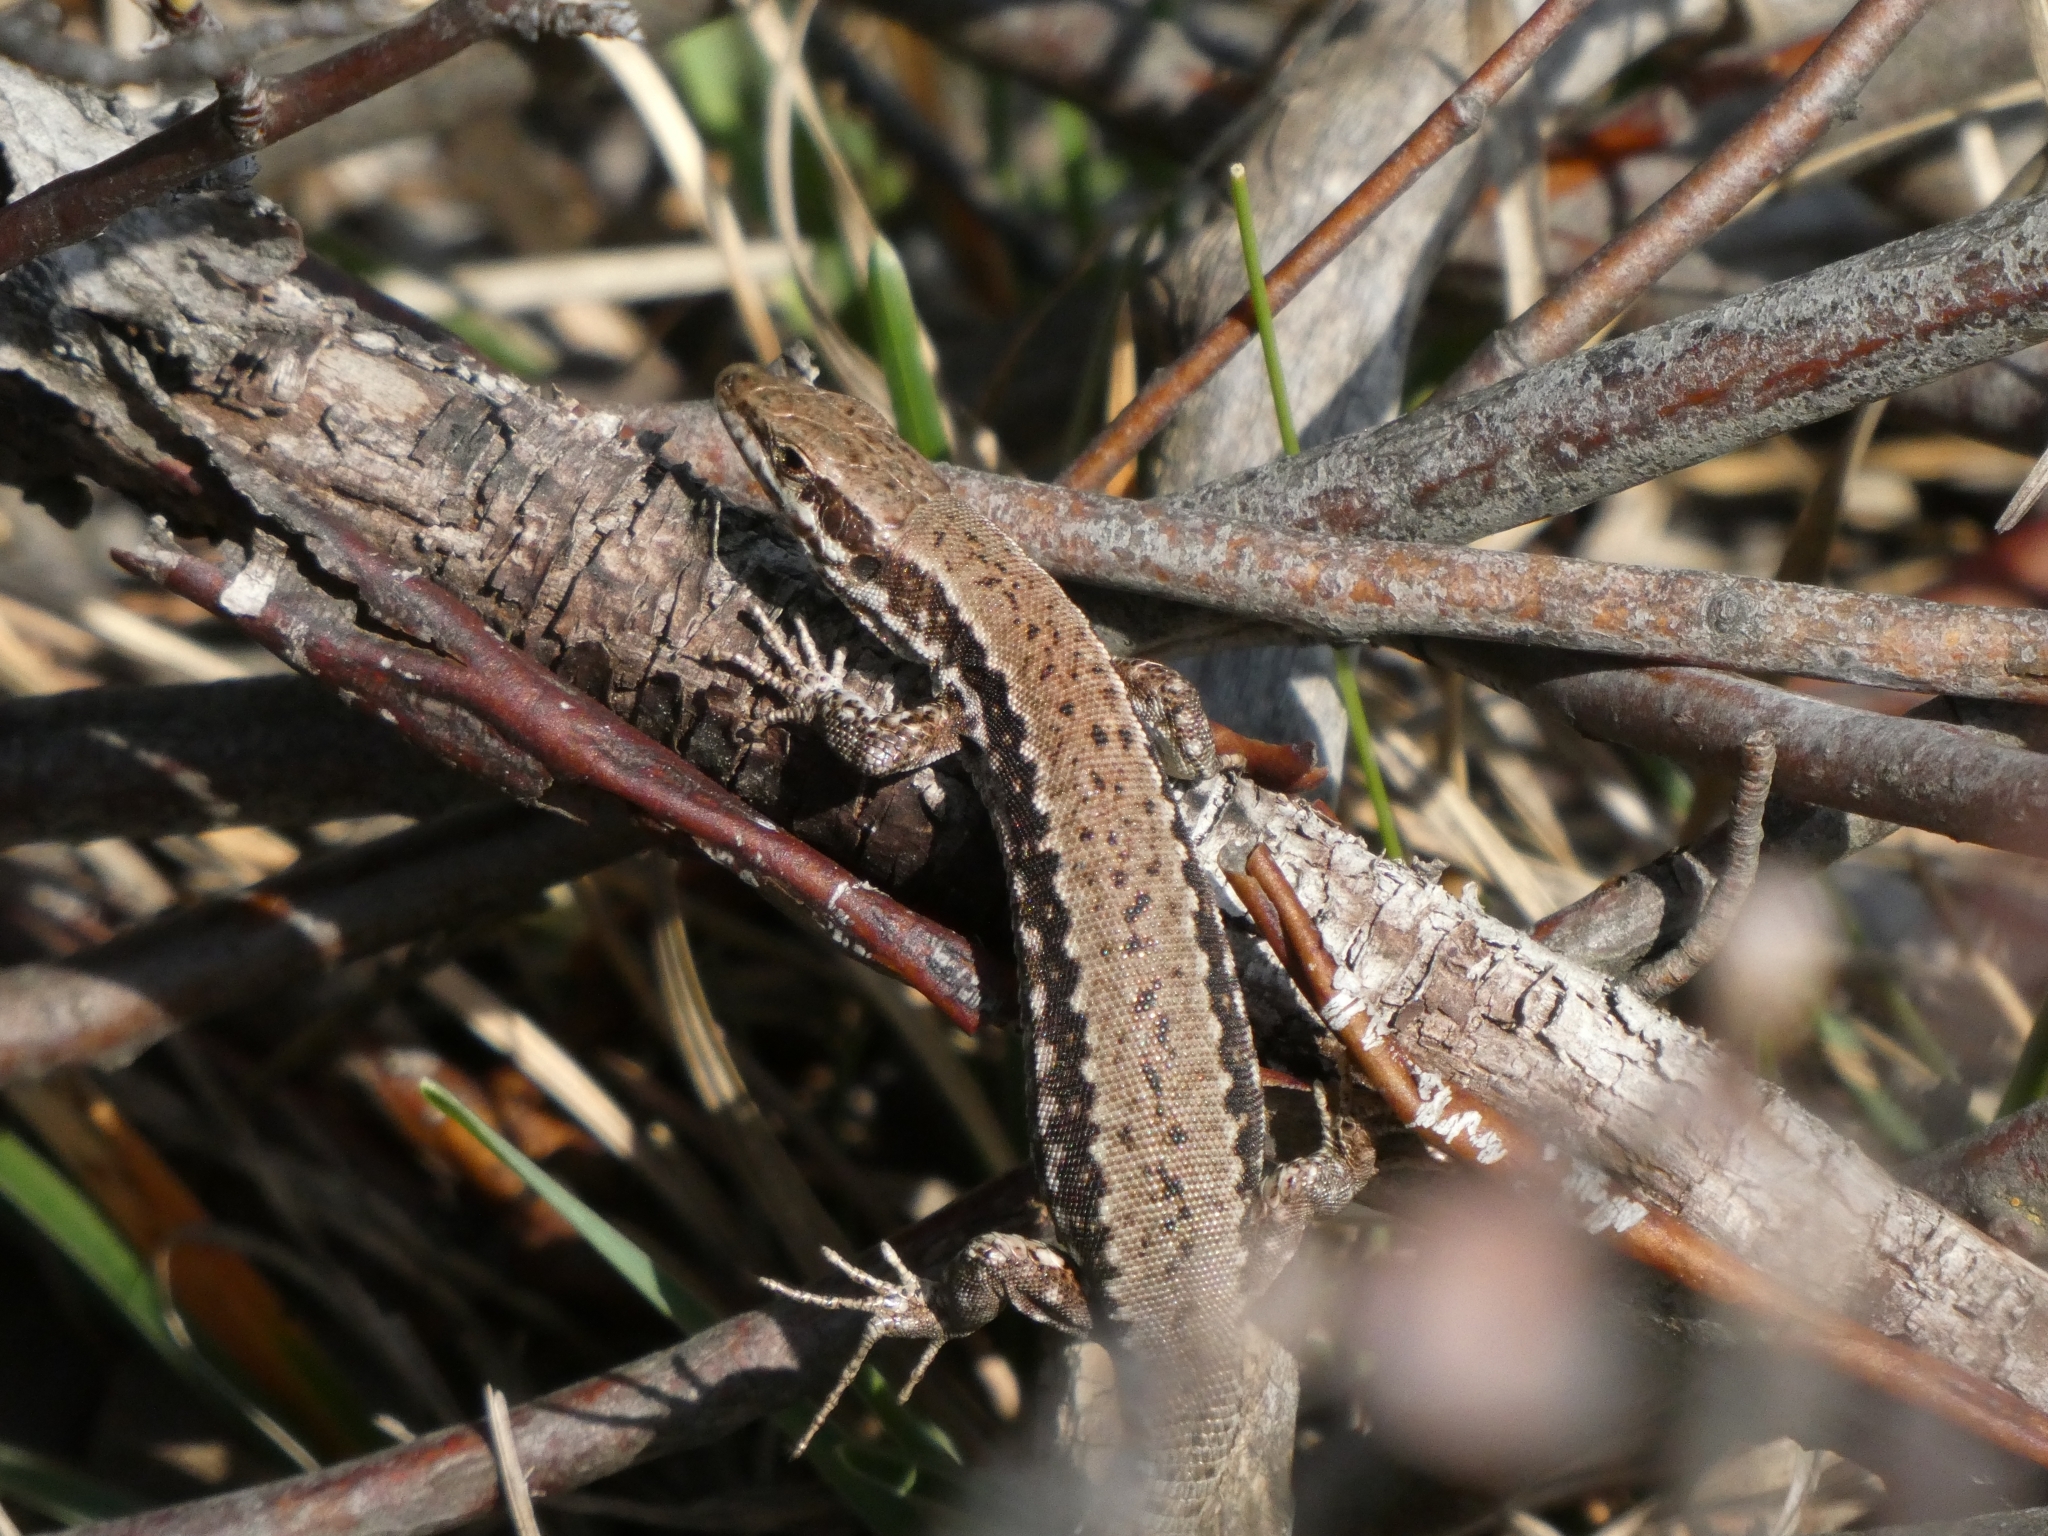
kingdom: Animalia
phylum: Chordata
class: Squamata
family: Lacertidae
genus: Podarcis
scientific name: Podarcis muralis
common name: Common wall lizard
